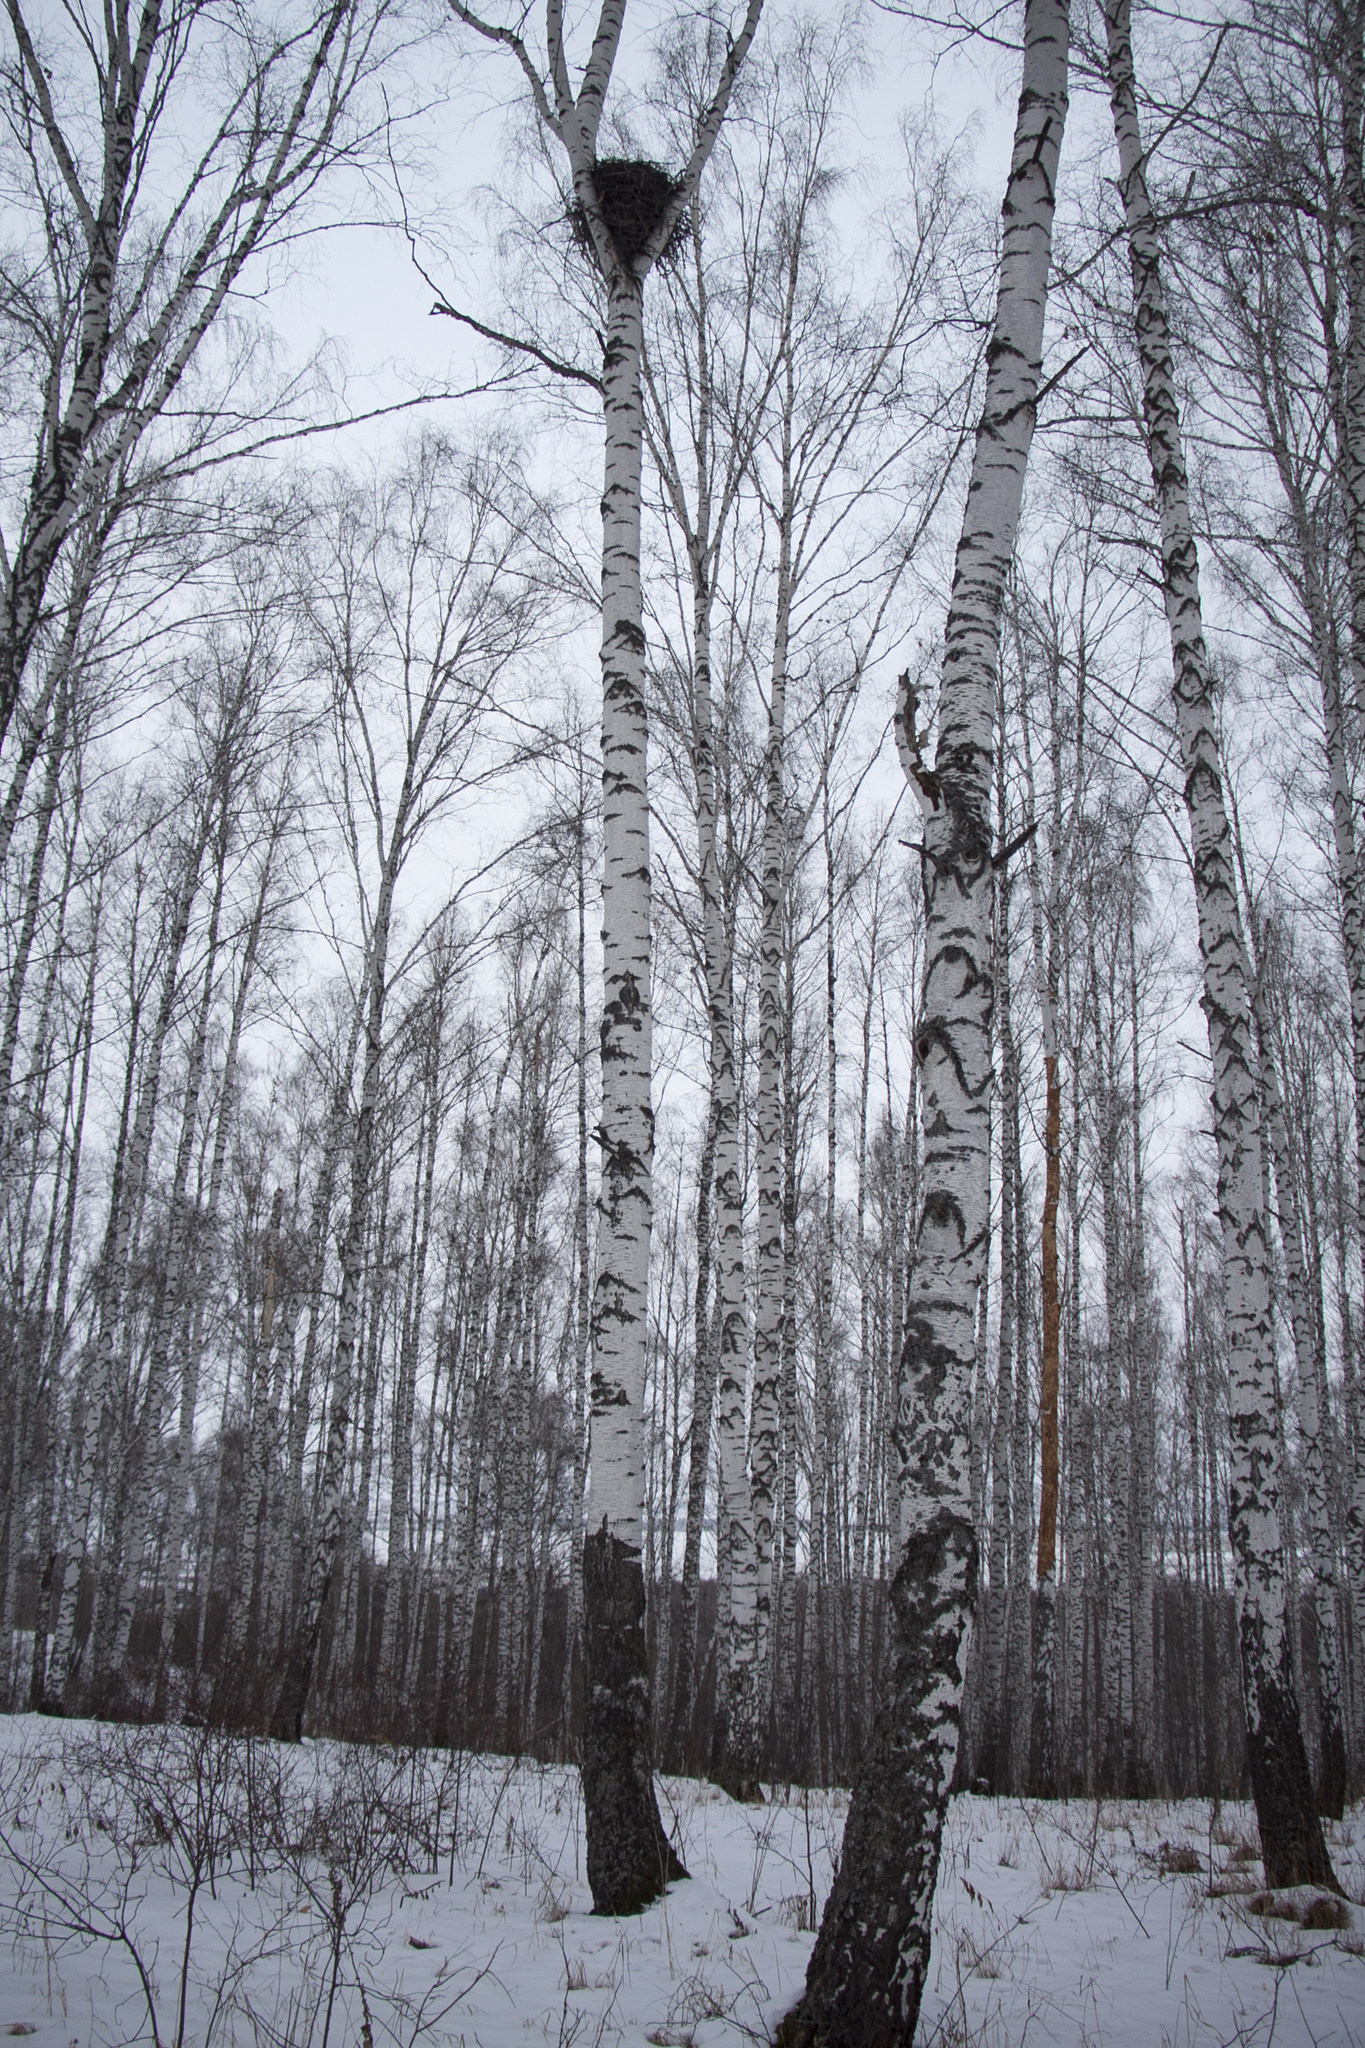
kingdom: Animalia
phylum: Chordata
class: Aves
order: Passeriformes
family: Corvidae
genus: Corvus
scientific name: Corvus corax
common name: Common raven
